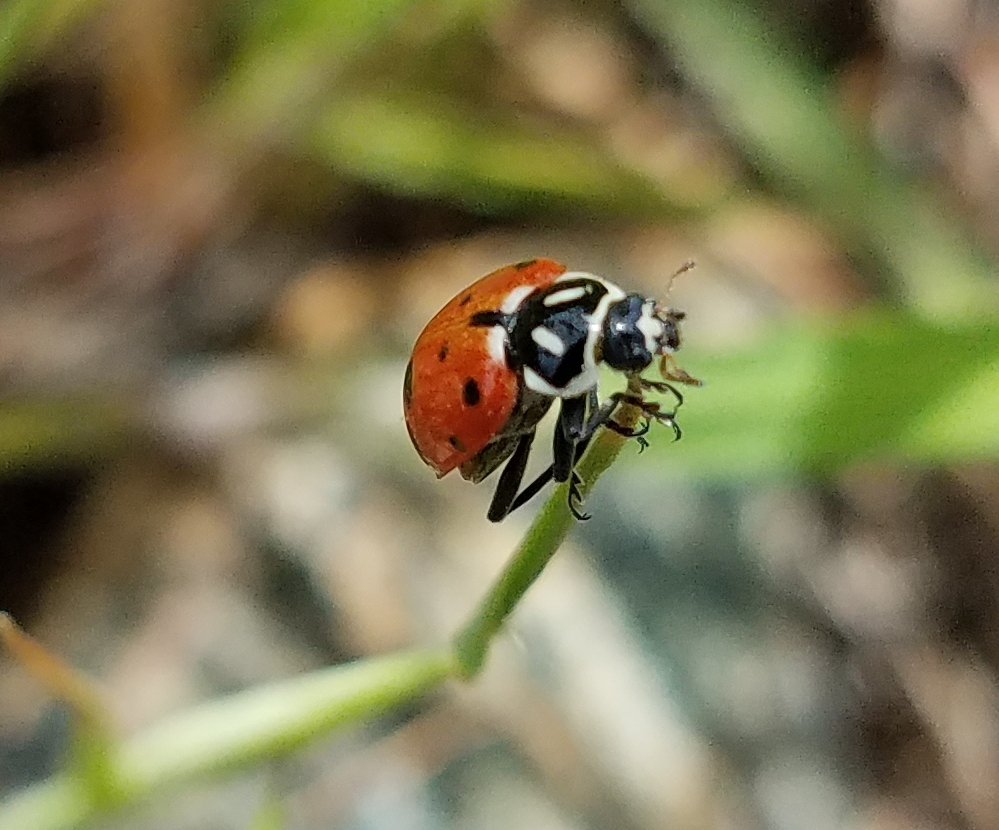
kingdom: Animalia
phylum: Arthropoda
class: Insecta
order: Coleoptera
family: Coccinellidae
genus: Hippodamia
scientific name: Hippodamia convergens
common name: Convergent lady beetle
